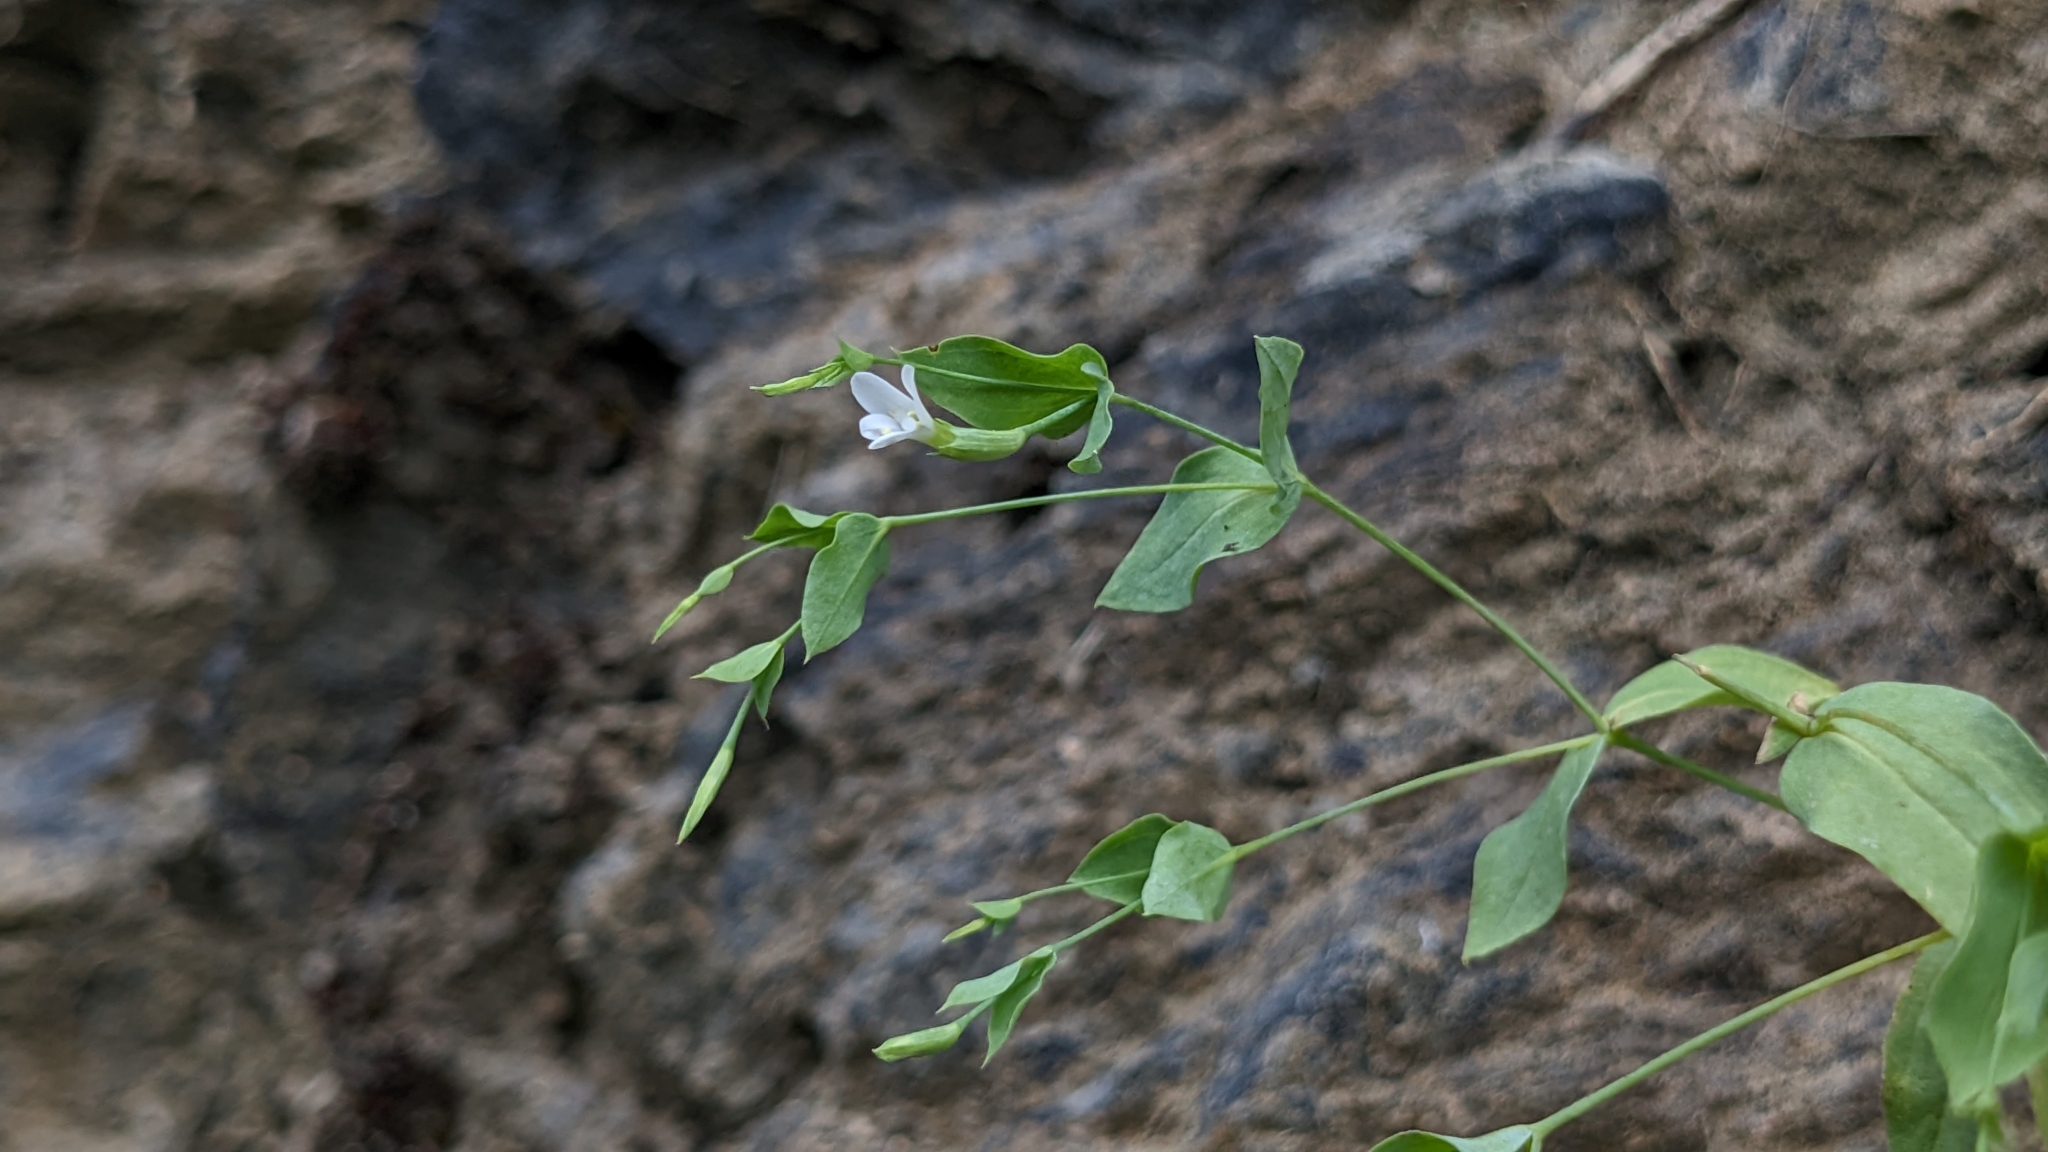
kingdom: Plantae
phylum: Tracheophyta
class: Magnoliopsida
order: Gentianales
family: Gentianaceae
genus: Canscora
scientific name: Canscora diffusa
